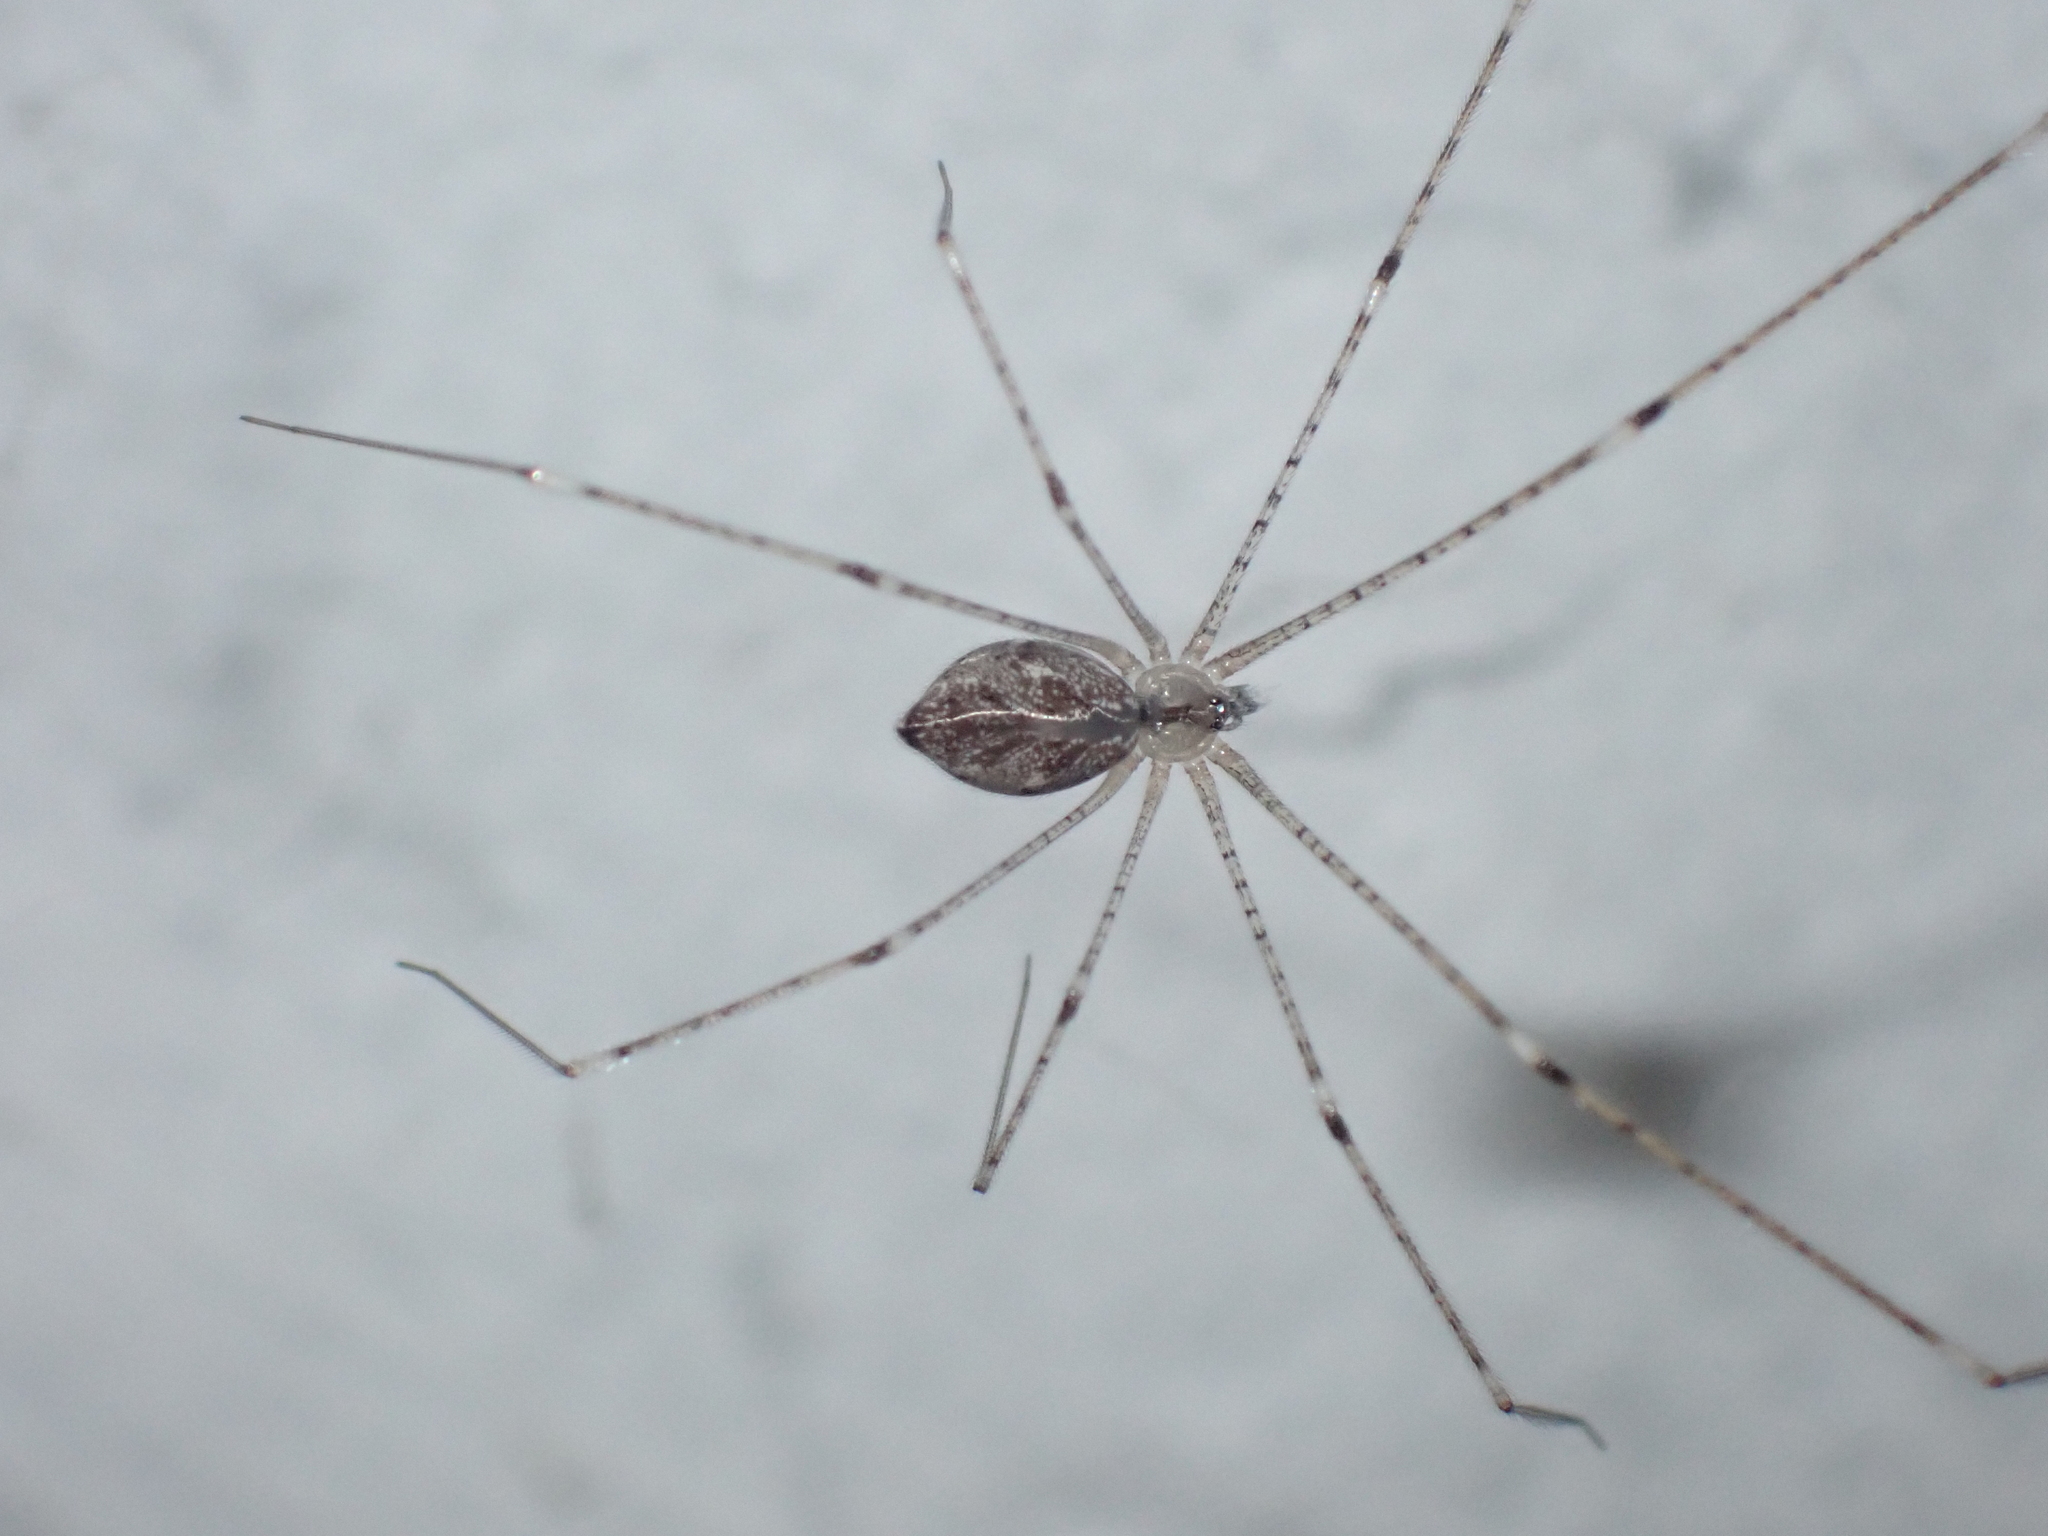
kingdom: Animalia
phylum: Arthropoda
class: Arachnida
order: Araneae
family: Pholcidae
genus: Crossopriza
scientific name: Crossopriza lyoni
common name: Cellar spiders
